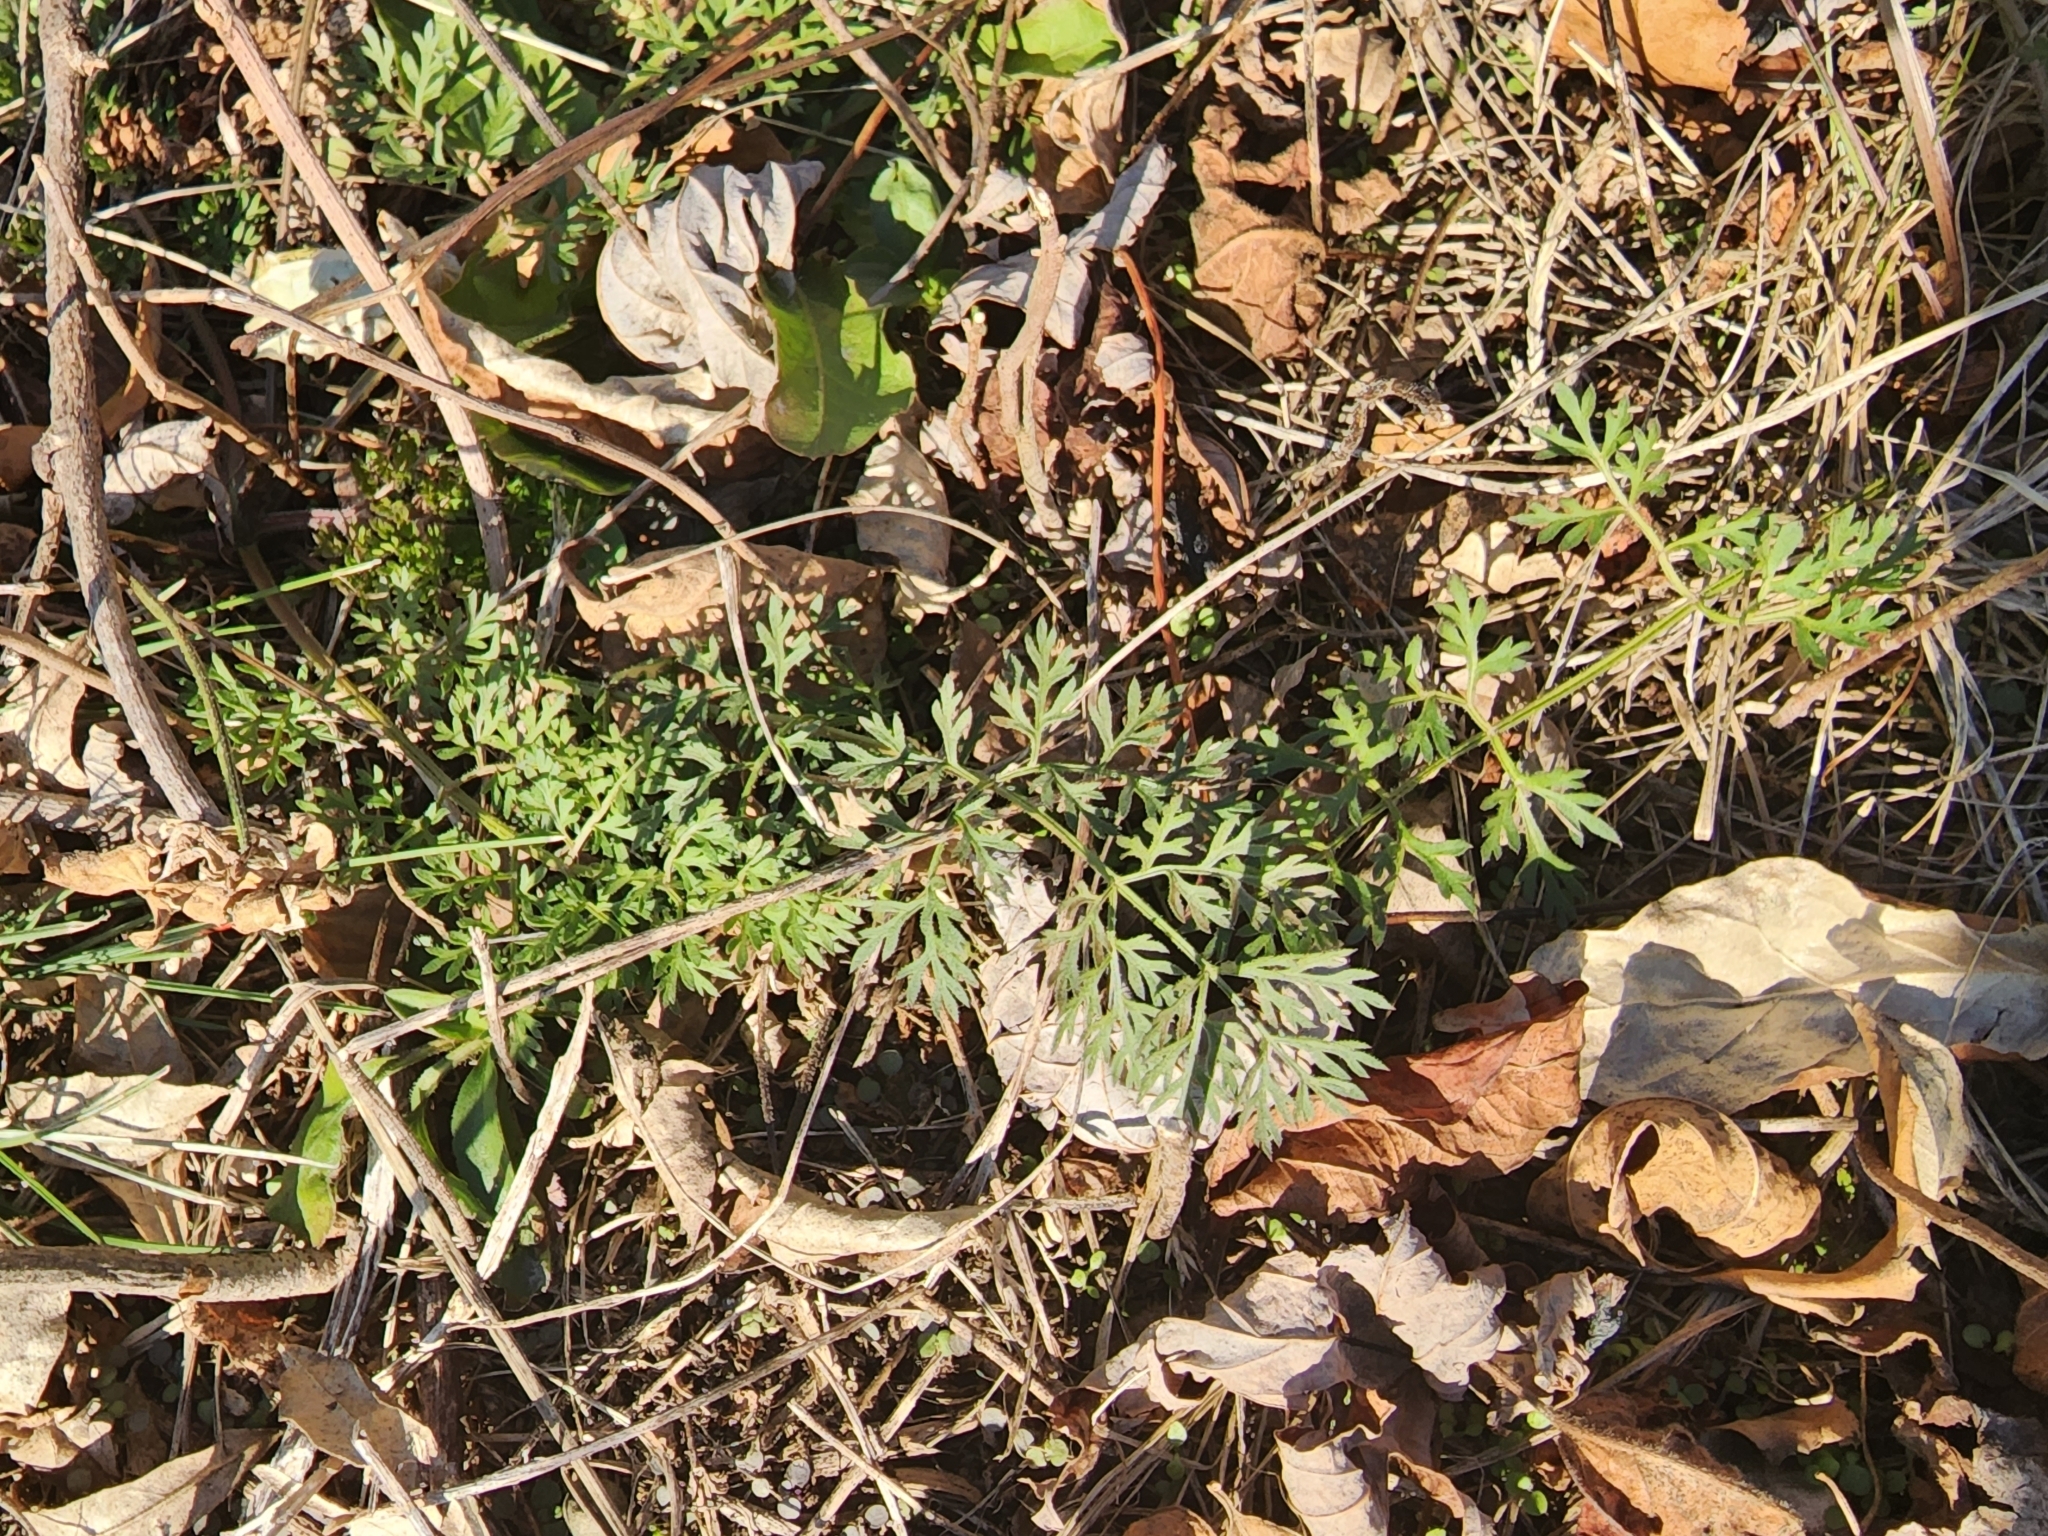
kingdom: Plantae
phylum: Tracheophyta
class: Magnoliopsida
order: Lamiales
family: Plantaginaceae
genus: Leucospora
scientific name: Leucospora multifida
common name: Narrow-leaf paleseed
